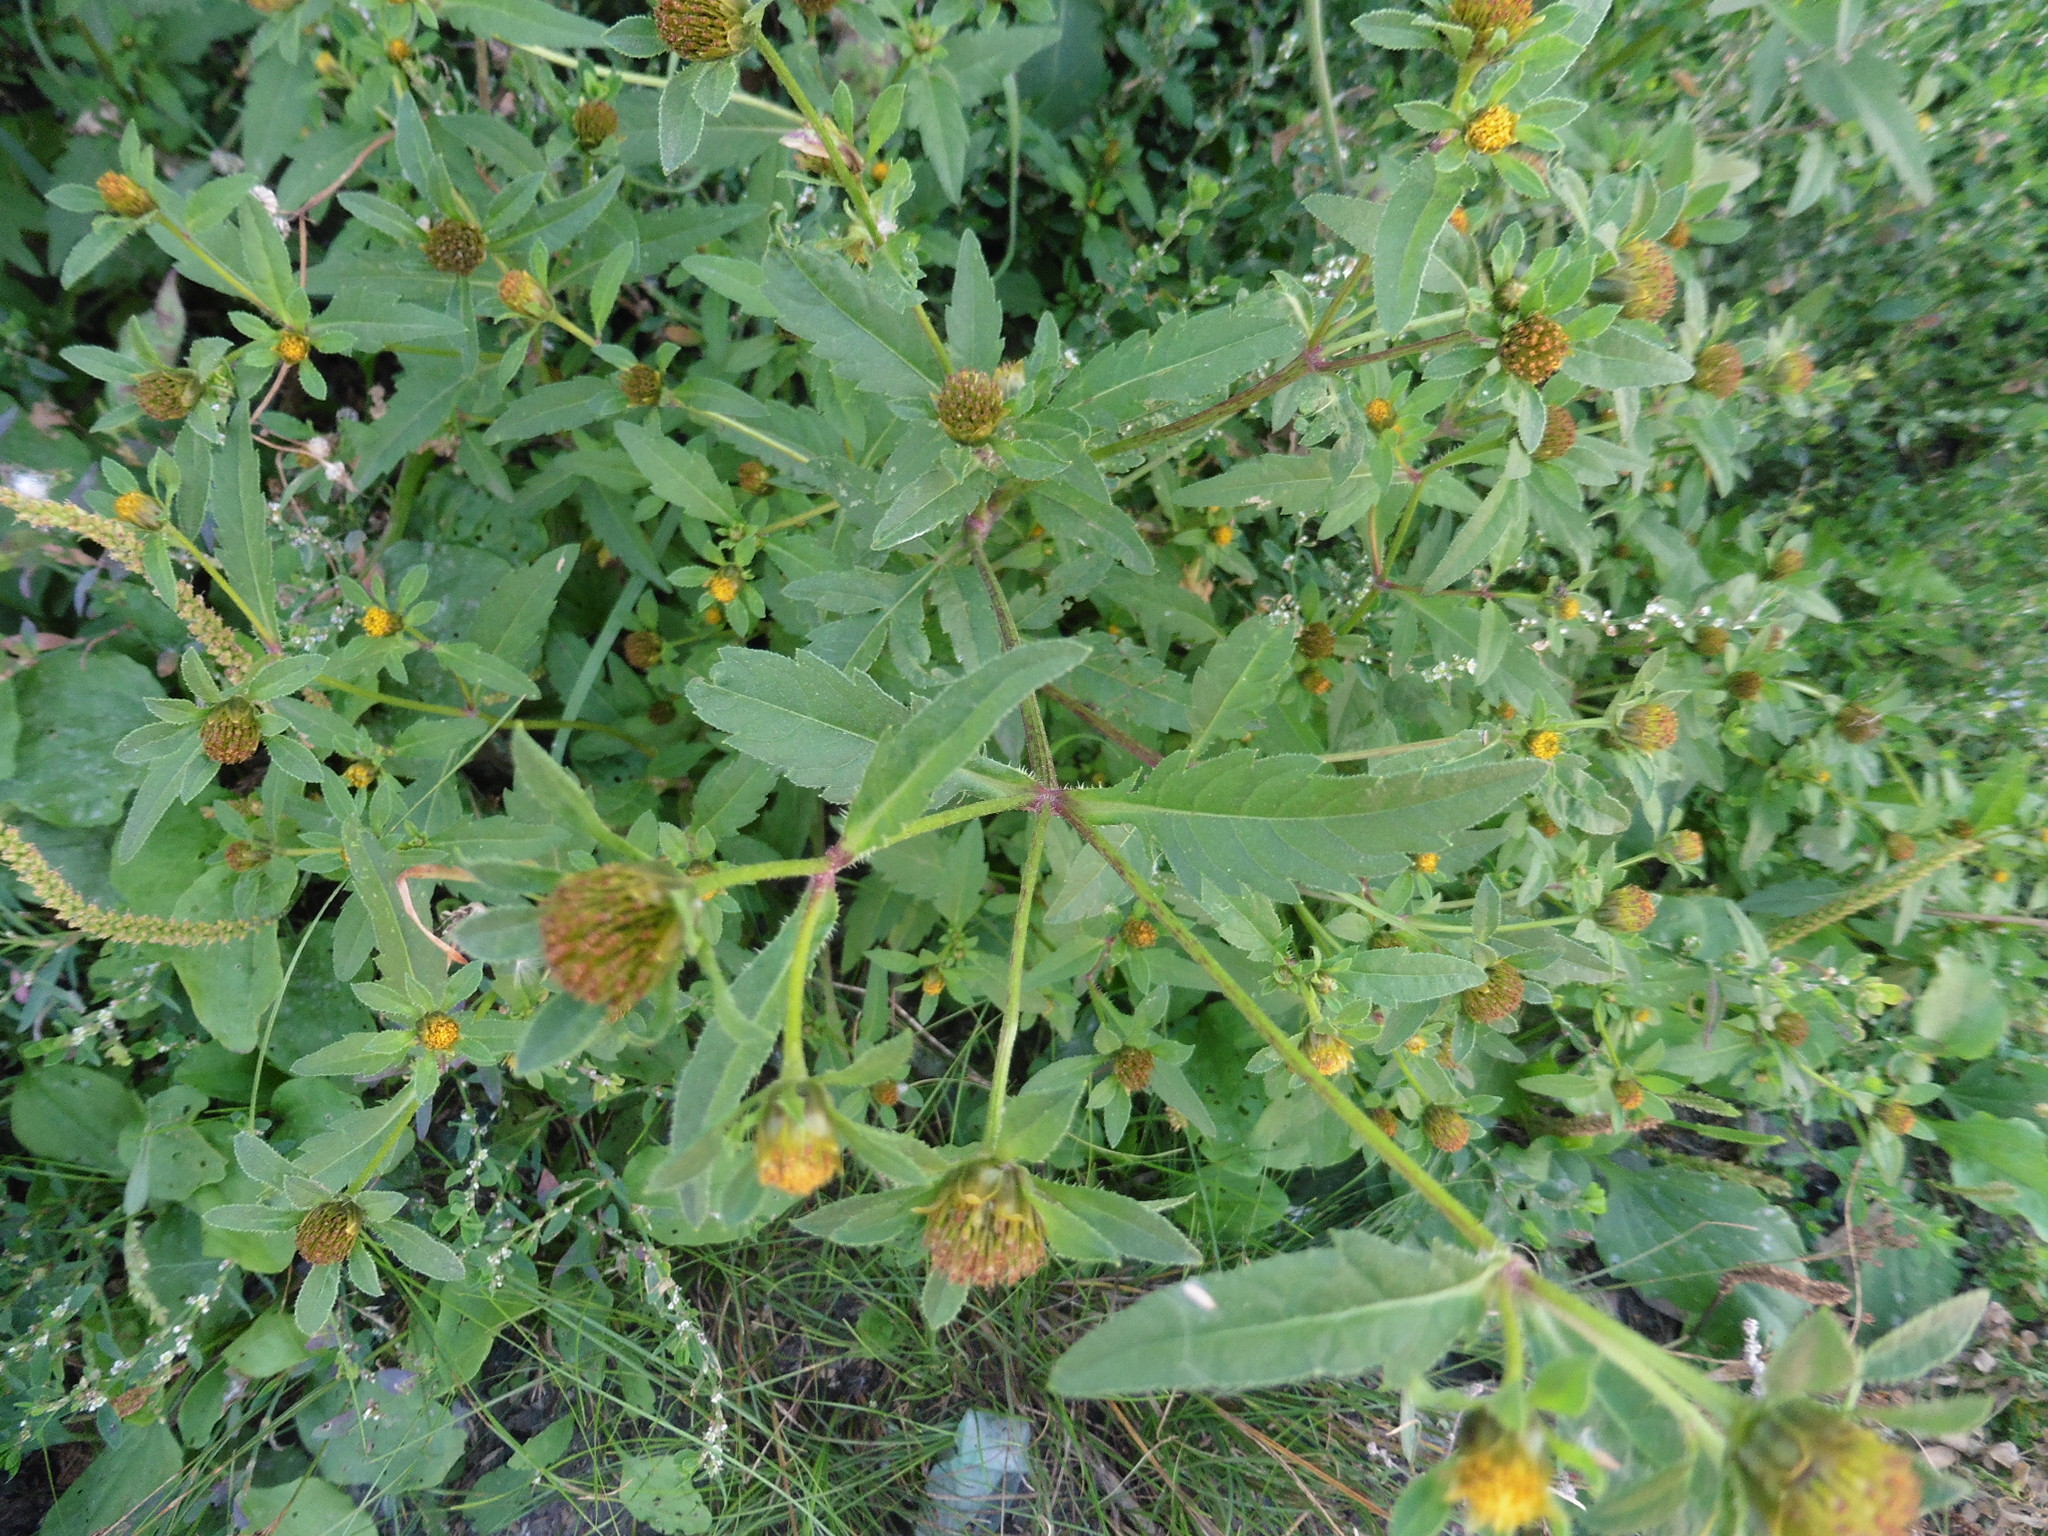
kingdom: Plantae
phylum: Tracheophyta
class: Magnoliopsida
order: Asterales
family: Asteraceae
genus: Bidens
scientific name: Bidens tripartita
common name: Trifid bur-marigold
